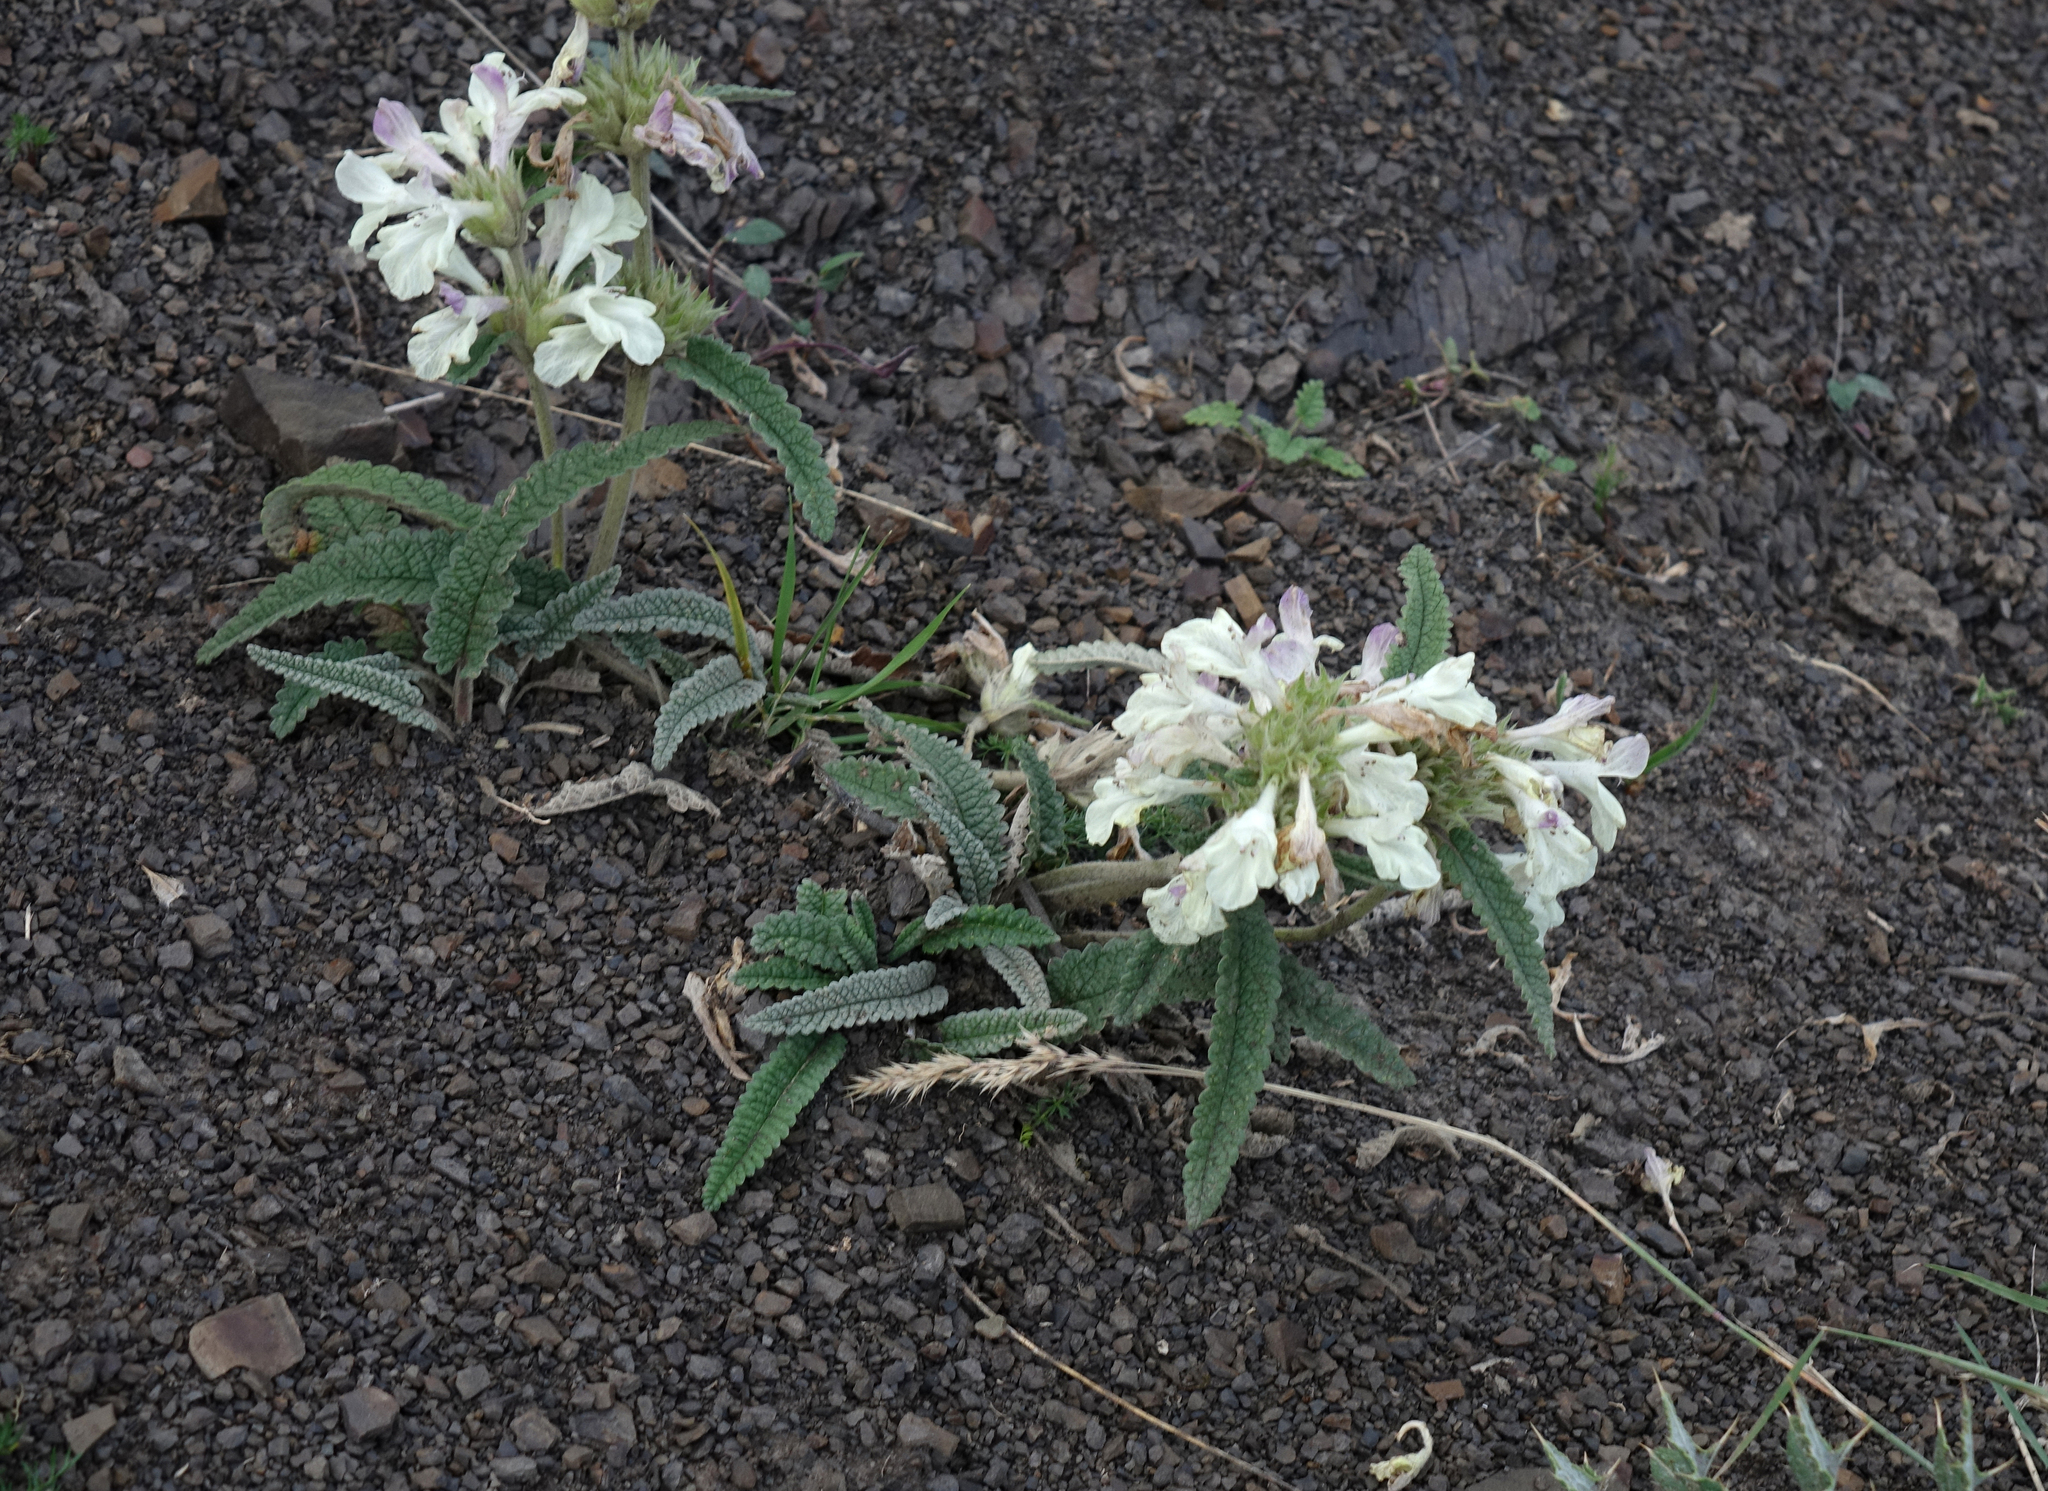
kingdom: Plantae
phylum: Tracheophyta
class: Magnoliopsida
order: Lamiales
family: Lamiaceae
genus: Betonica
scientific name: Betonica nivea
